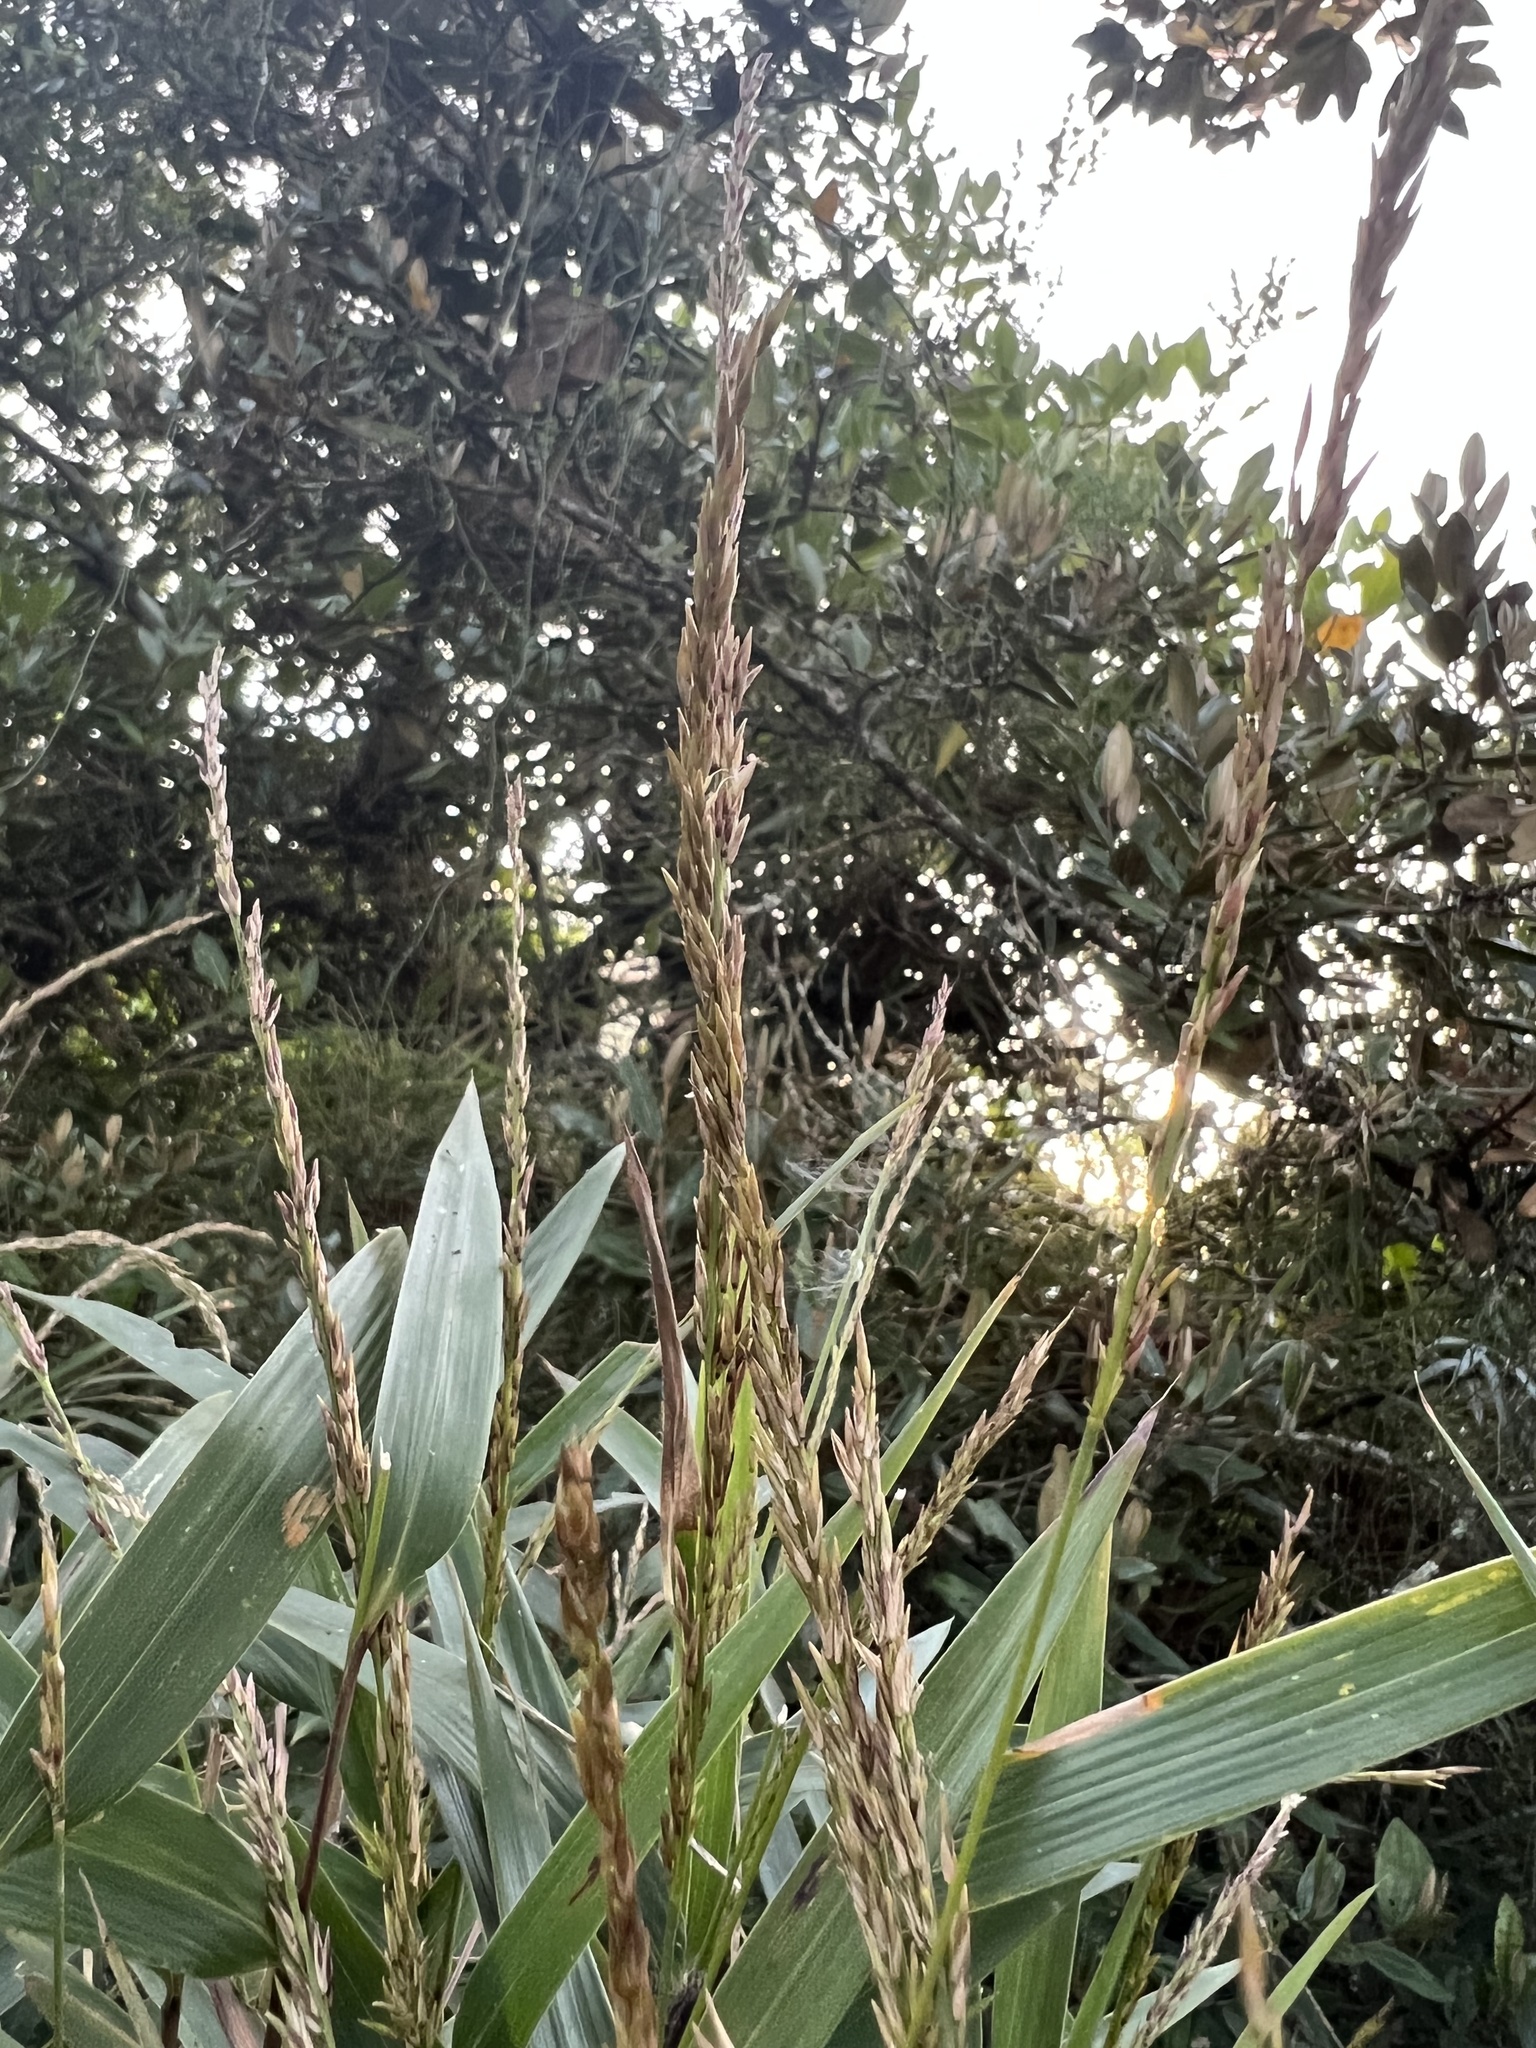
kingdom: Plantae
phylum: Tracheophyta
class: Liliopsida
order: Poales
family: Poaceae
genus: Chusquea
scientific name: Chusquea scandens
